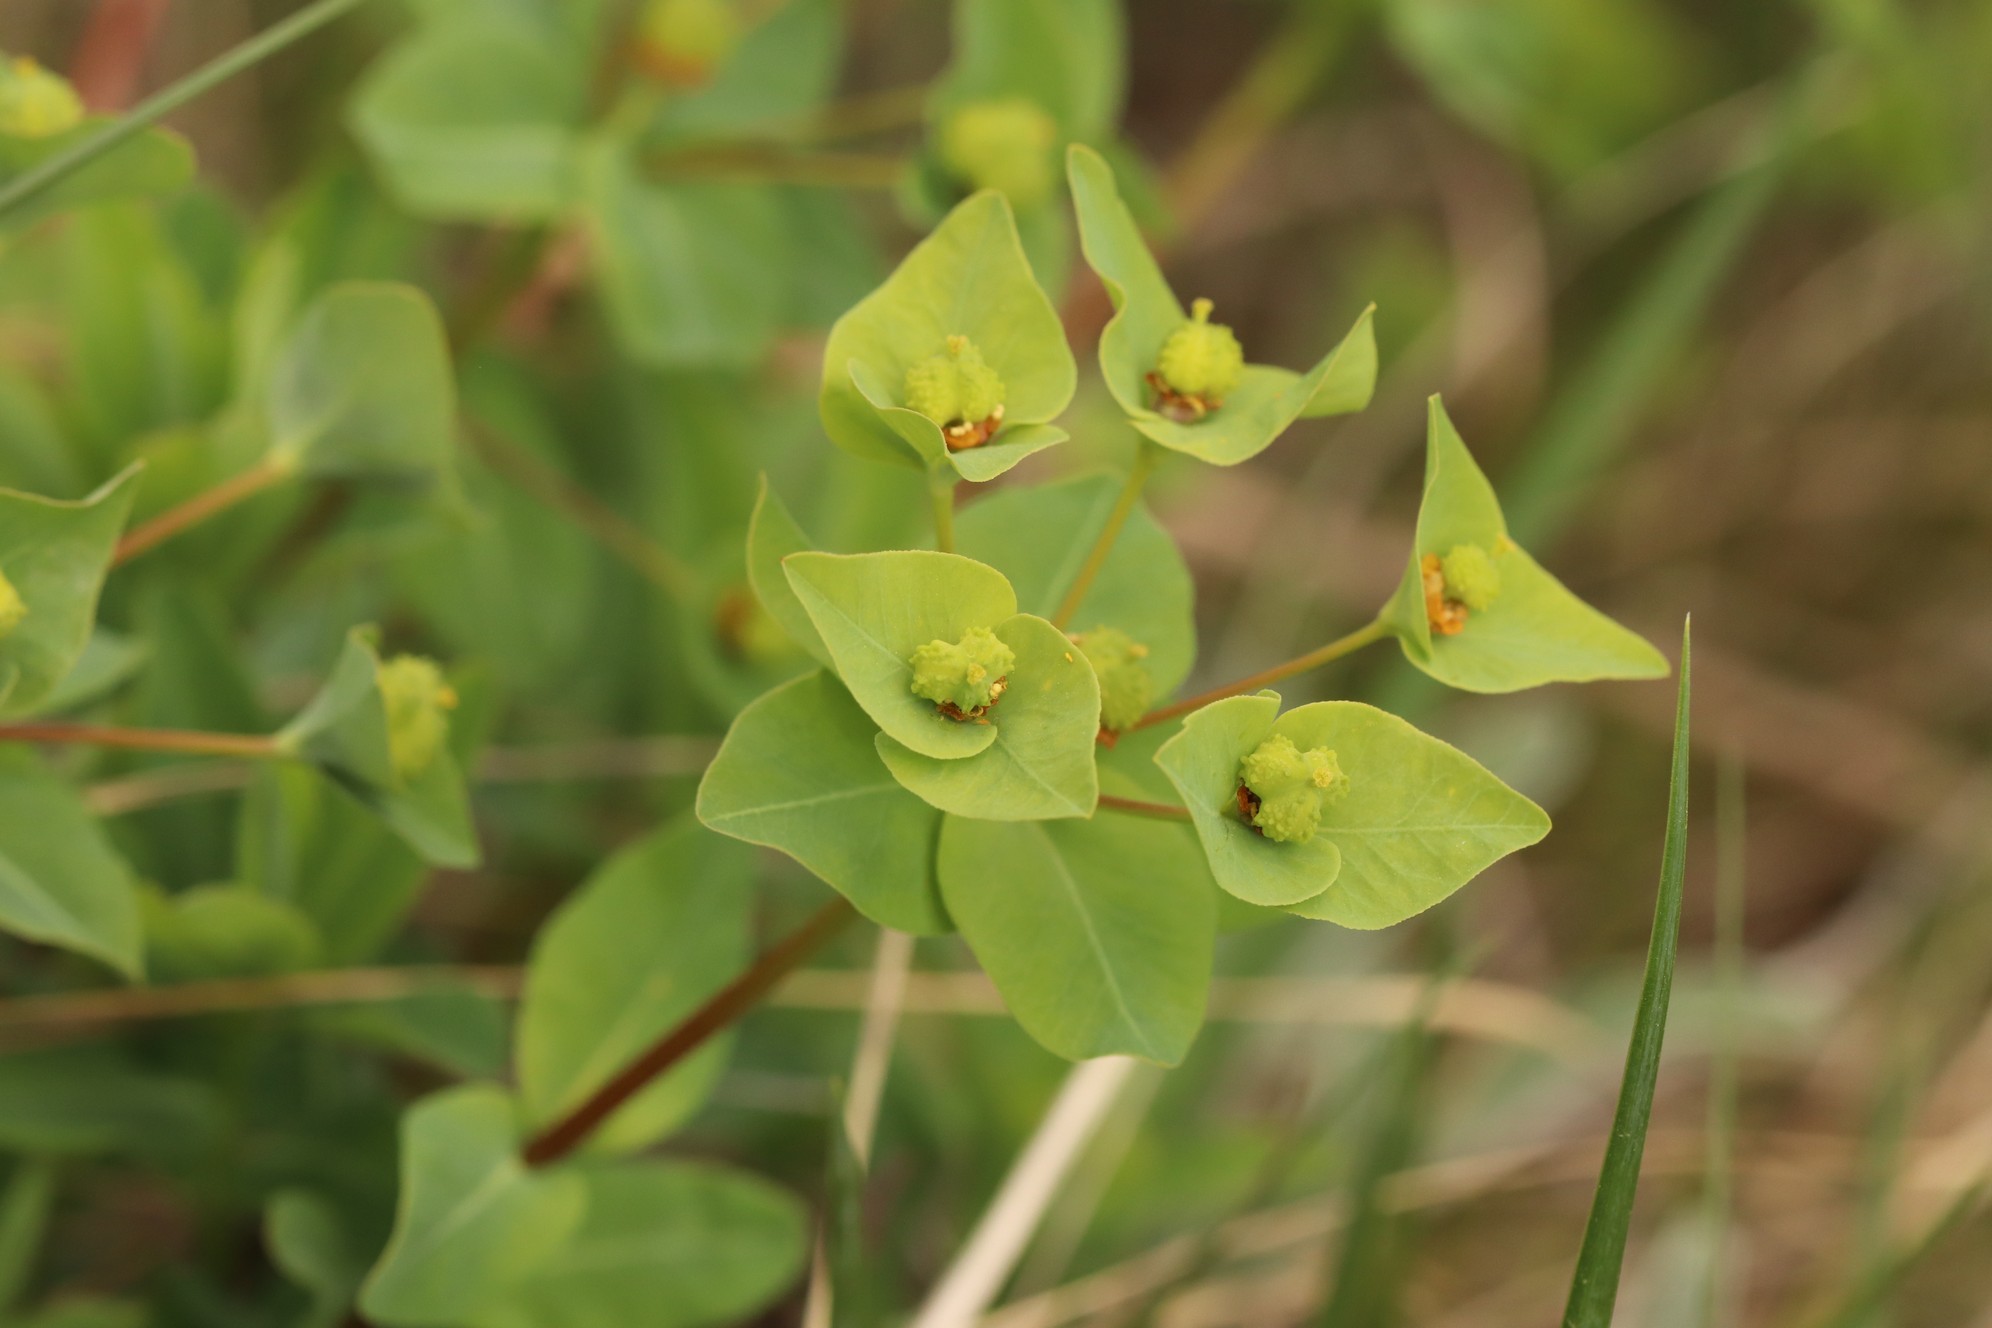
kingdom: Plantae
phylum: Tracheophyta
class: Magnoliopsida
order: Malpighiales
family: Euphorbiaceae
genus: Euphorbia
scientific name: Euphorbia altaica
